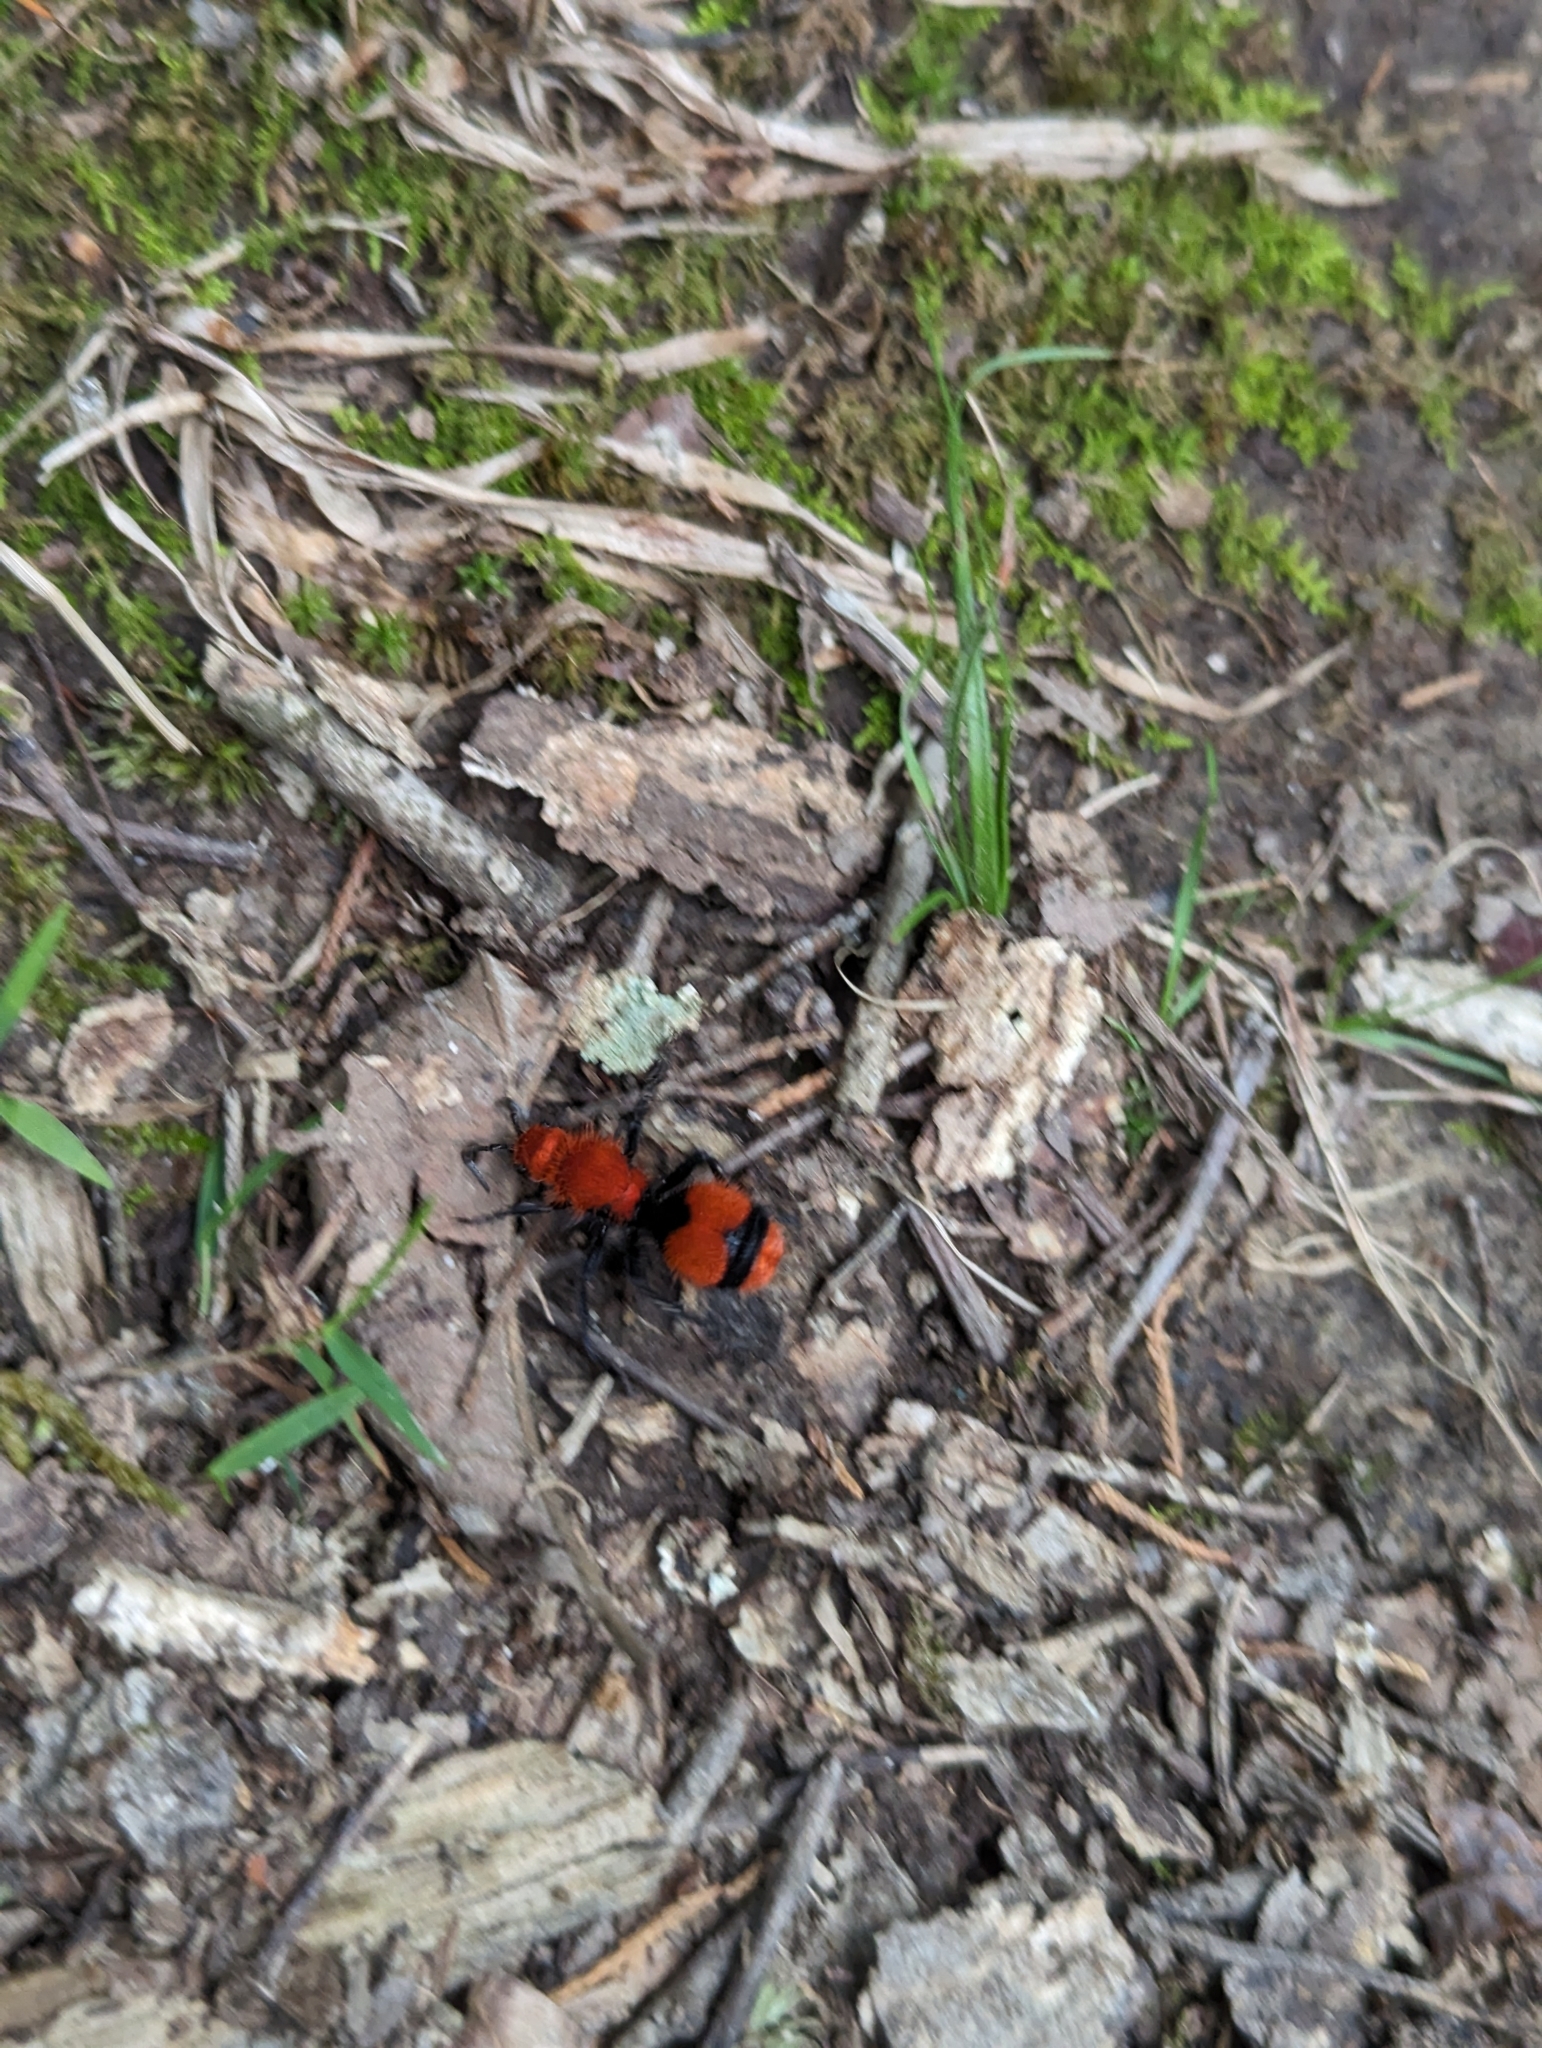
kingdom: Animalia
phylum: Arthropoda
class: Insecta
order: Hymenoptera
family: Mutillidae
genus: Dasymutilla
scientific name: Dasymutilla occidentalis
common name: Common eastern velvet ant
